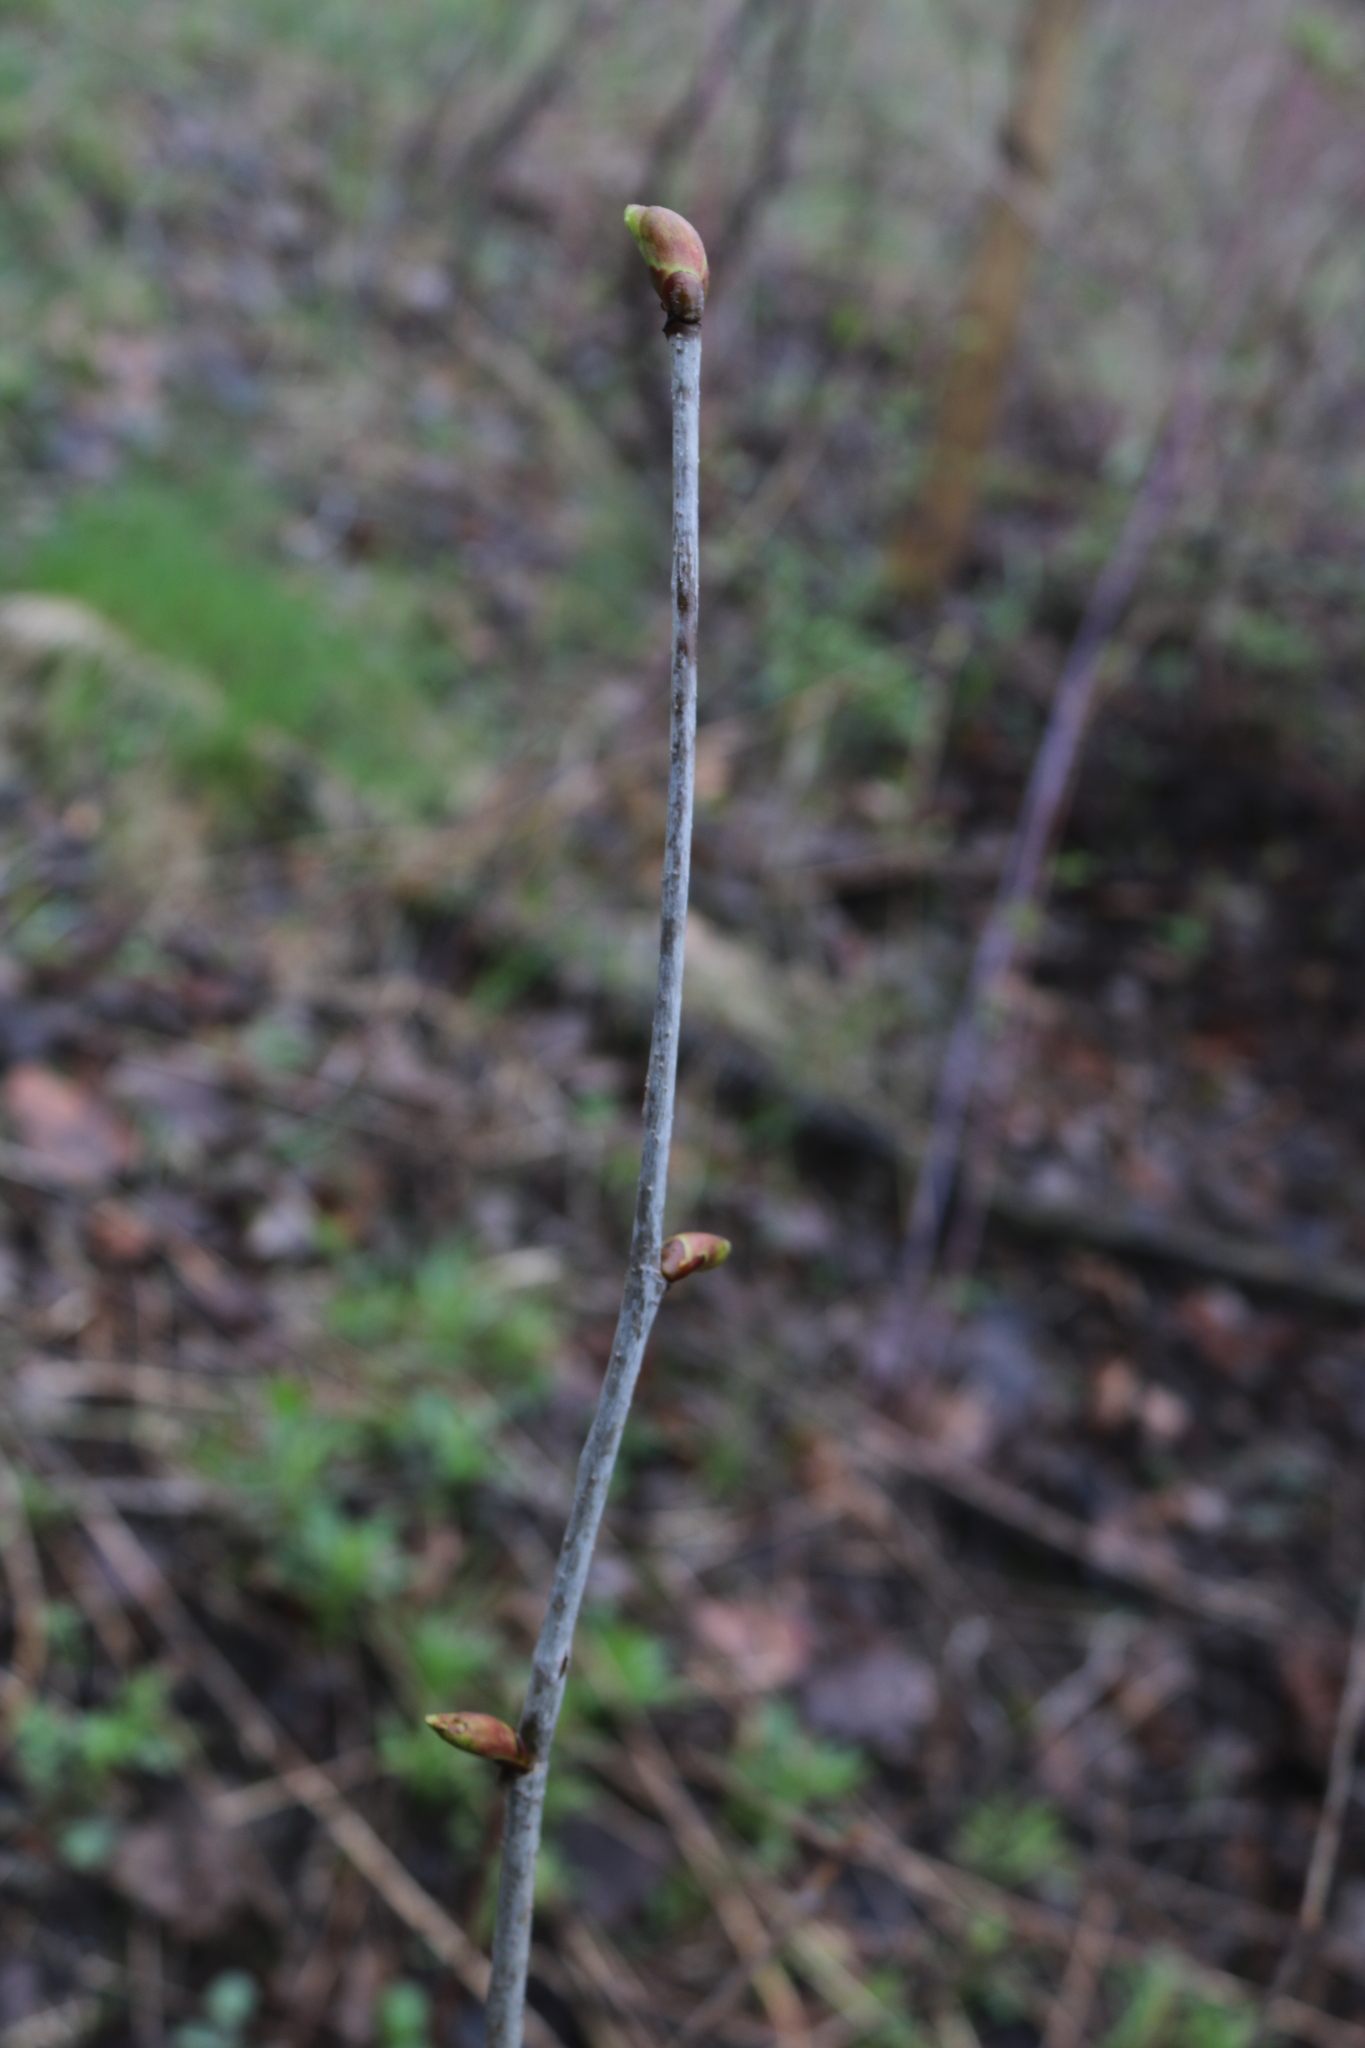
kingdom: Plantae
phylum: Tracheophyta
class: Magnoliopsida
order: Malvales
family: Malvaceae
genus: Tilia
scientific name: Tilia americana
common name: Basswood
